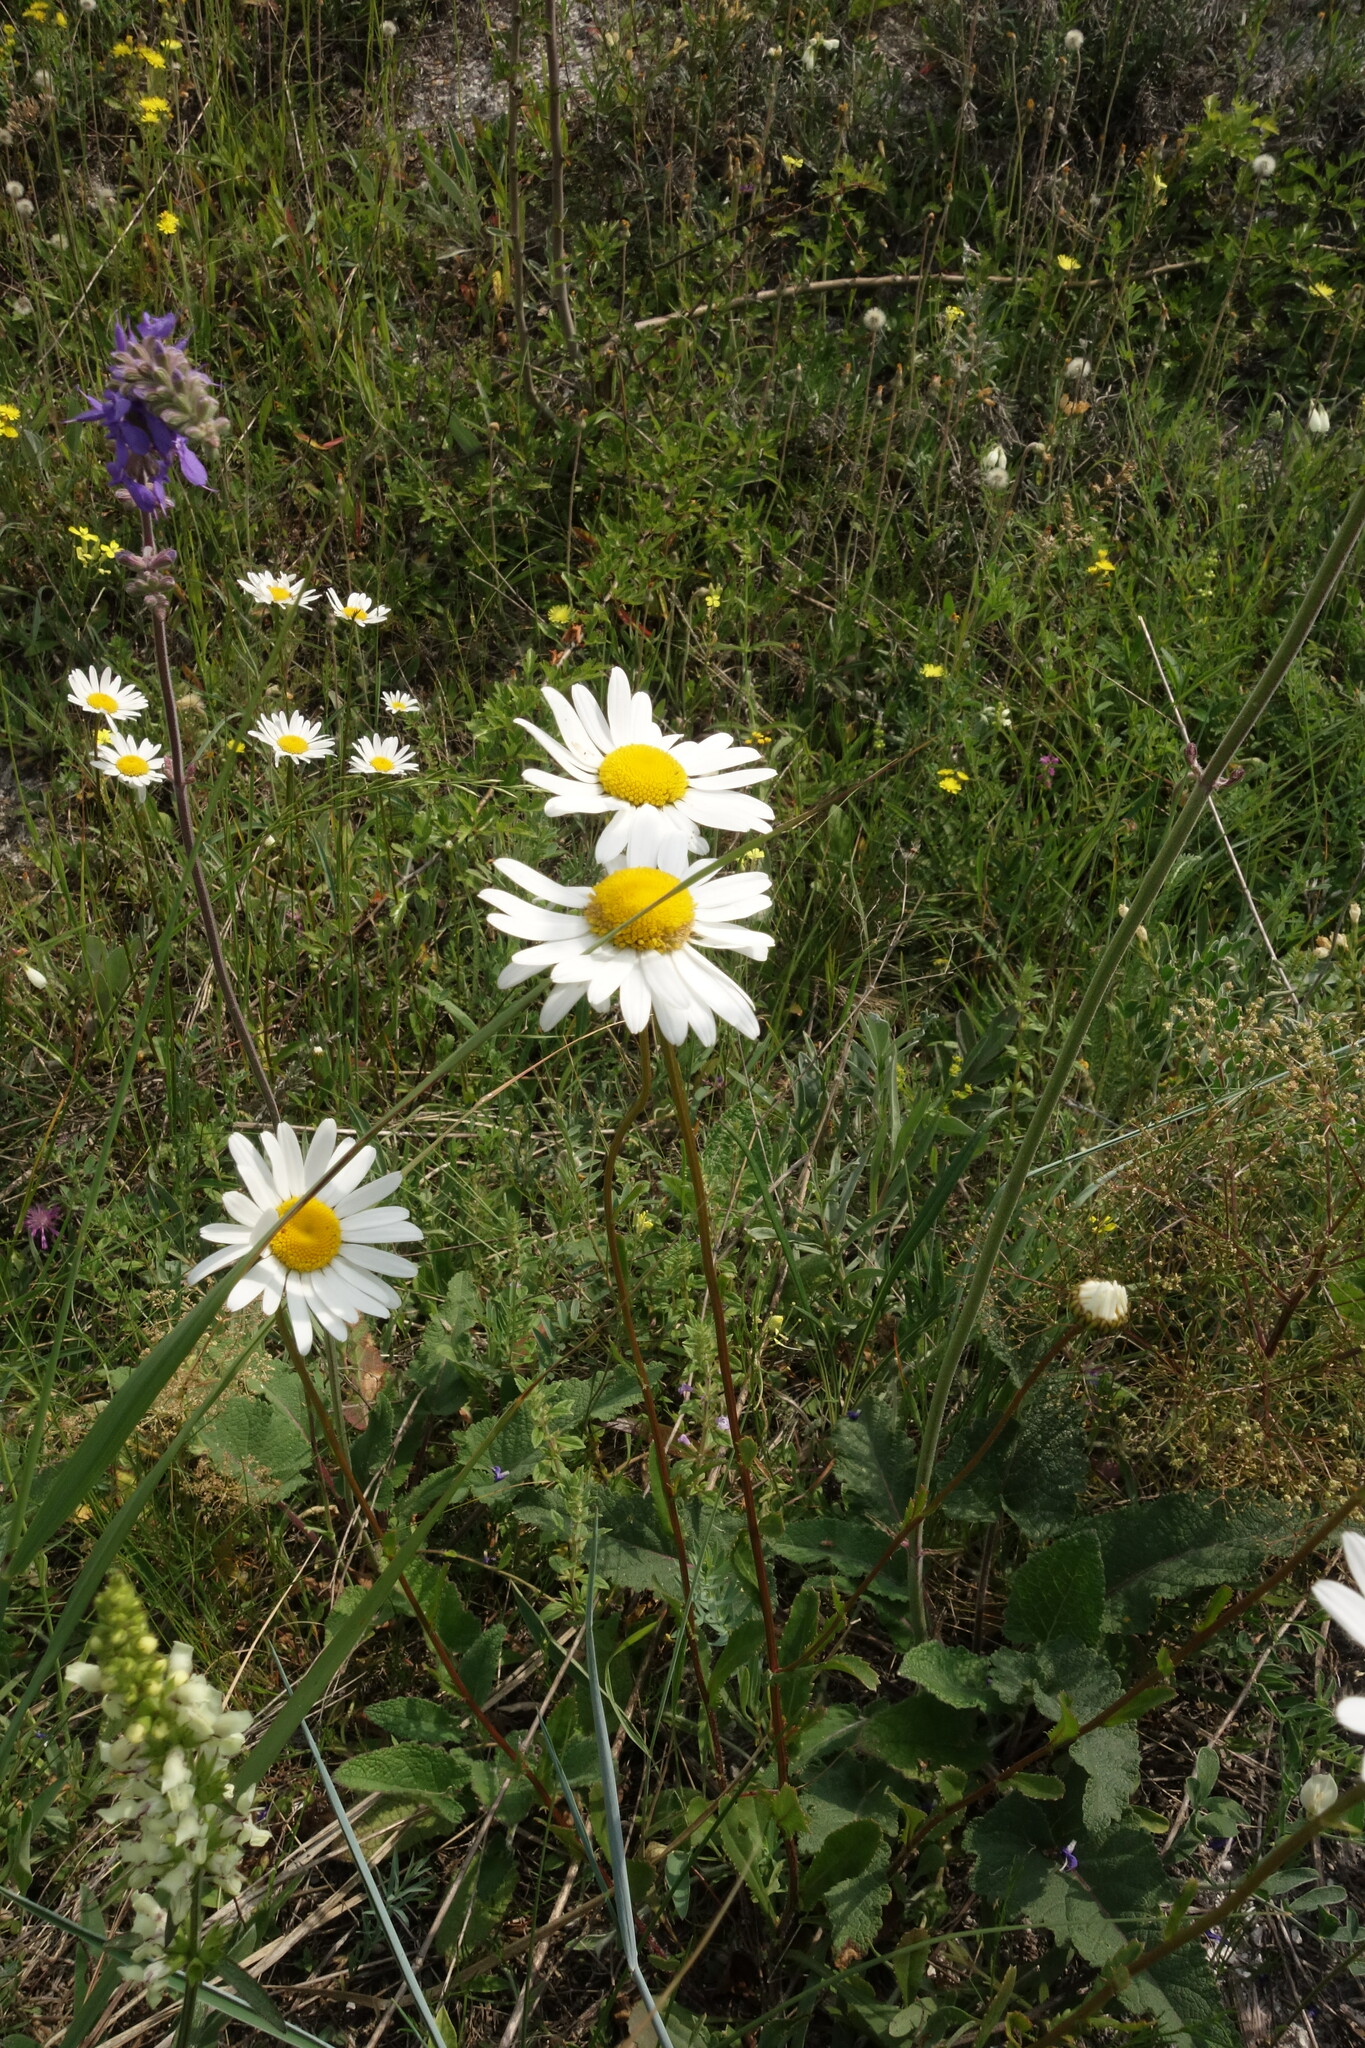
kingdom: Plantae
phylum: Tracheophyta
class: Magnoliopsida
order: Asterales
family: Asteraceae
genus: Leucanthemum
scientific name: Leucanthemum vulgare
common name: Oxeye daisy
